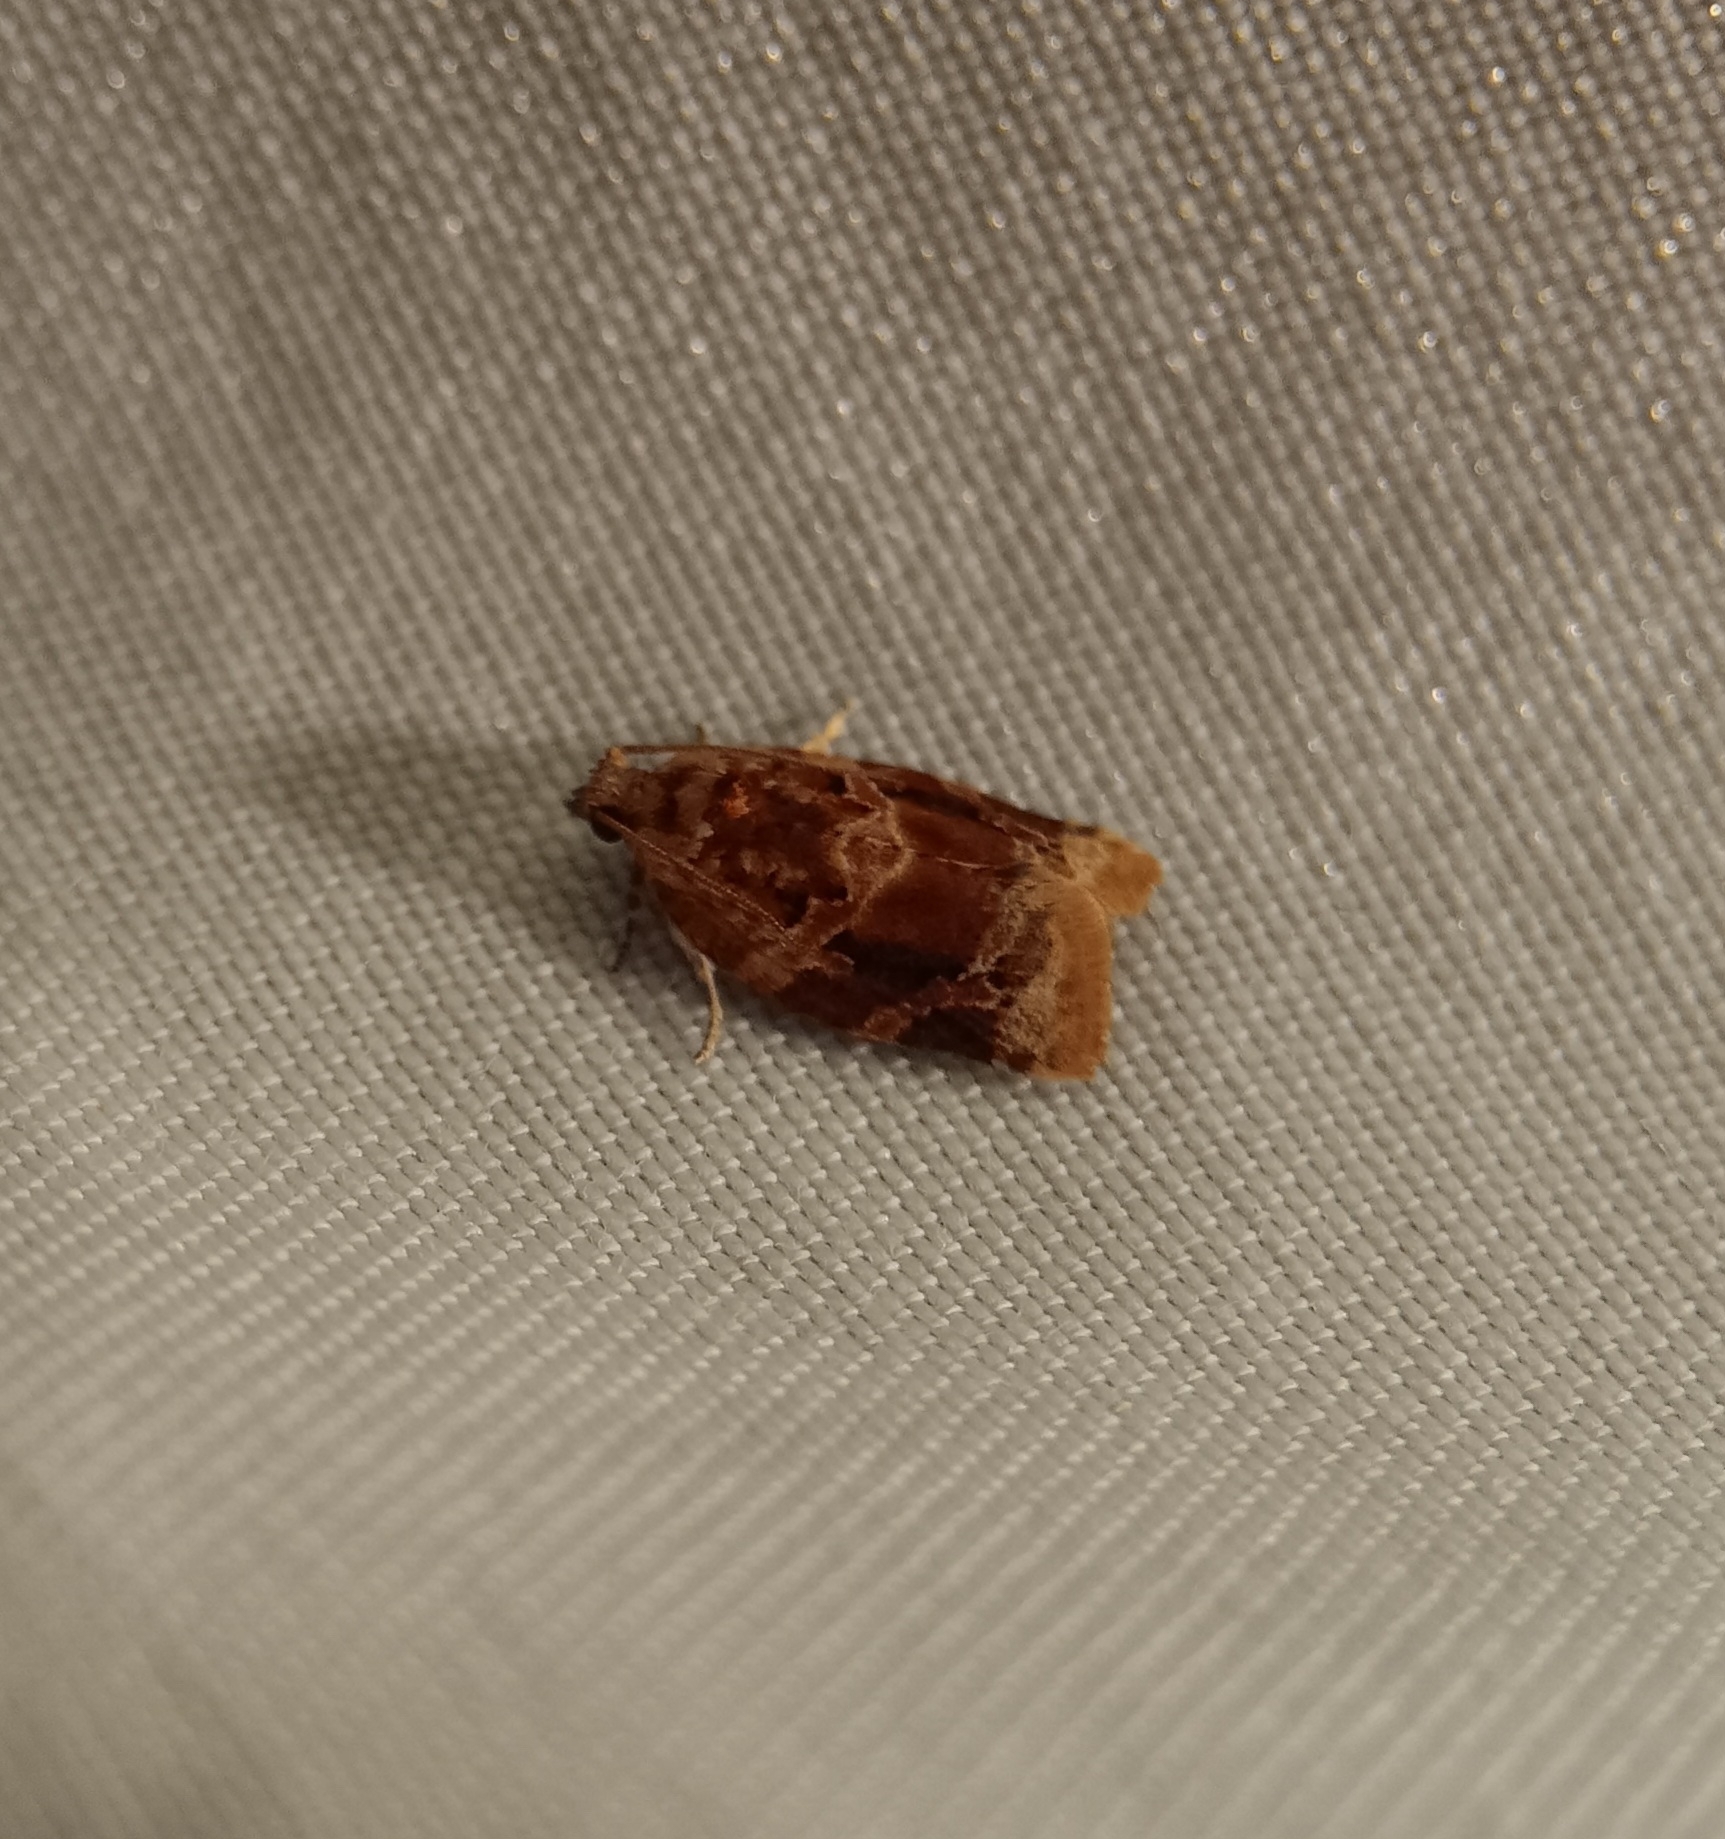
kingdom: Animalia
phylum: Arthropoda
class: Insecta
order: Lepidoptera
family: Tortricidae
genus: Argyrotaenia
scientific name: Argyrotaenia velutinana
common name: Red-banded leafroller moth
